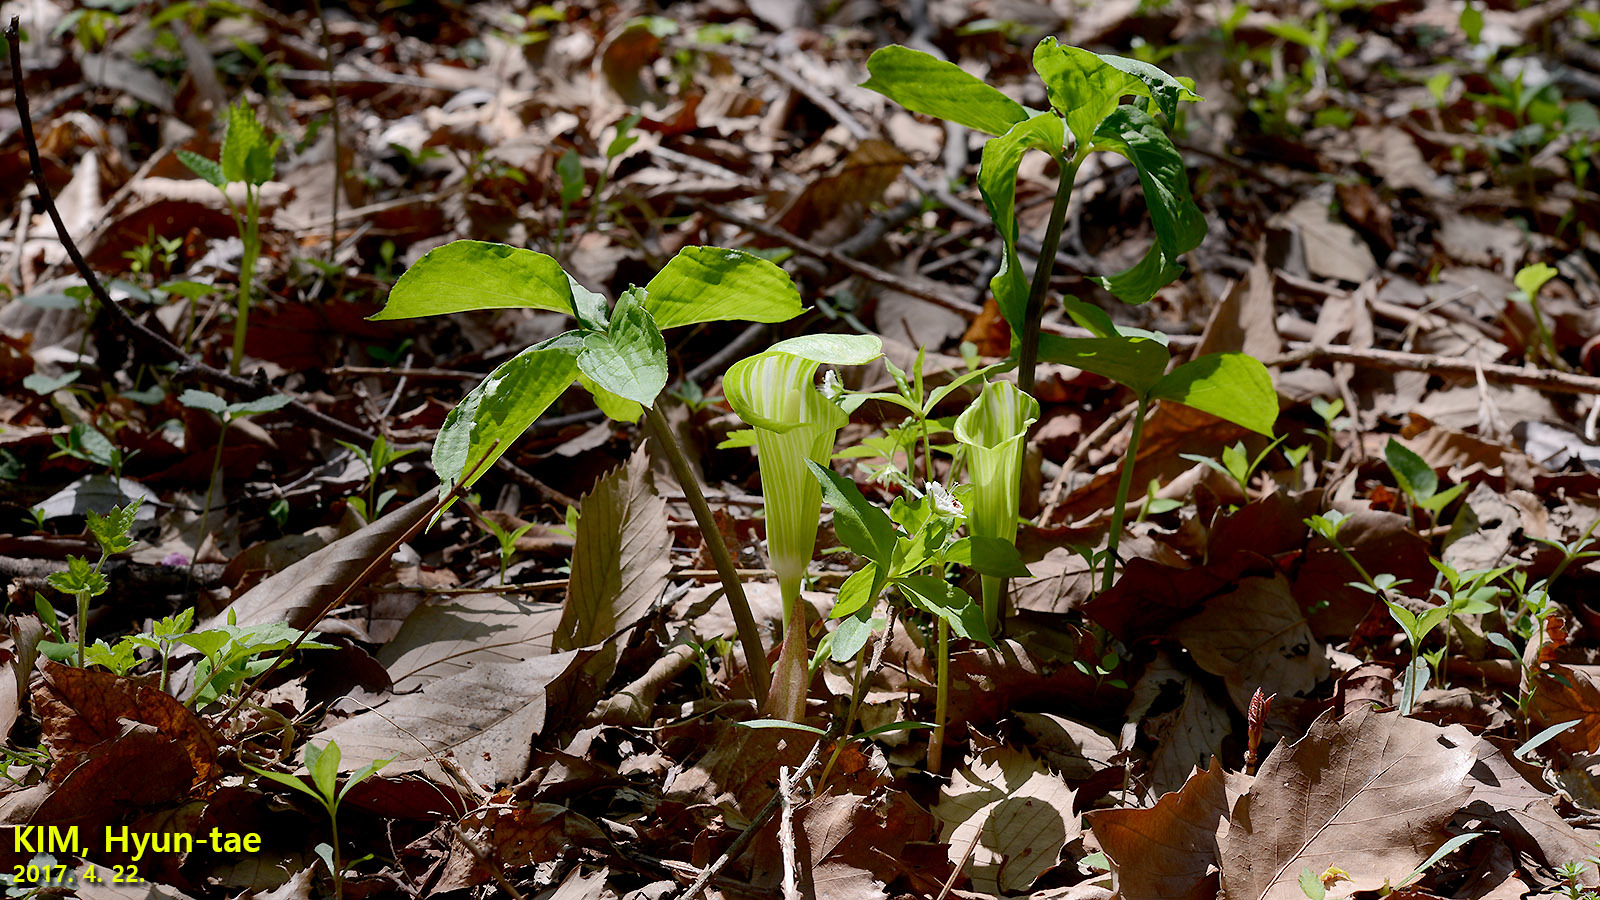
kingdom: Plantae
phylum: Tracheophyta
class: Liliopsida
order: Alismatales
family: Araceae
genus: Arisaema
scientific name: Arisaema amurense
